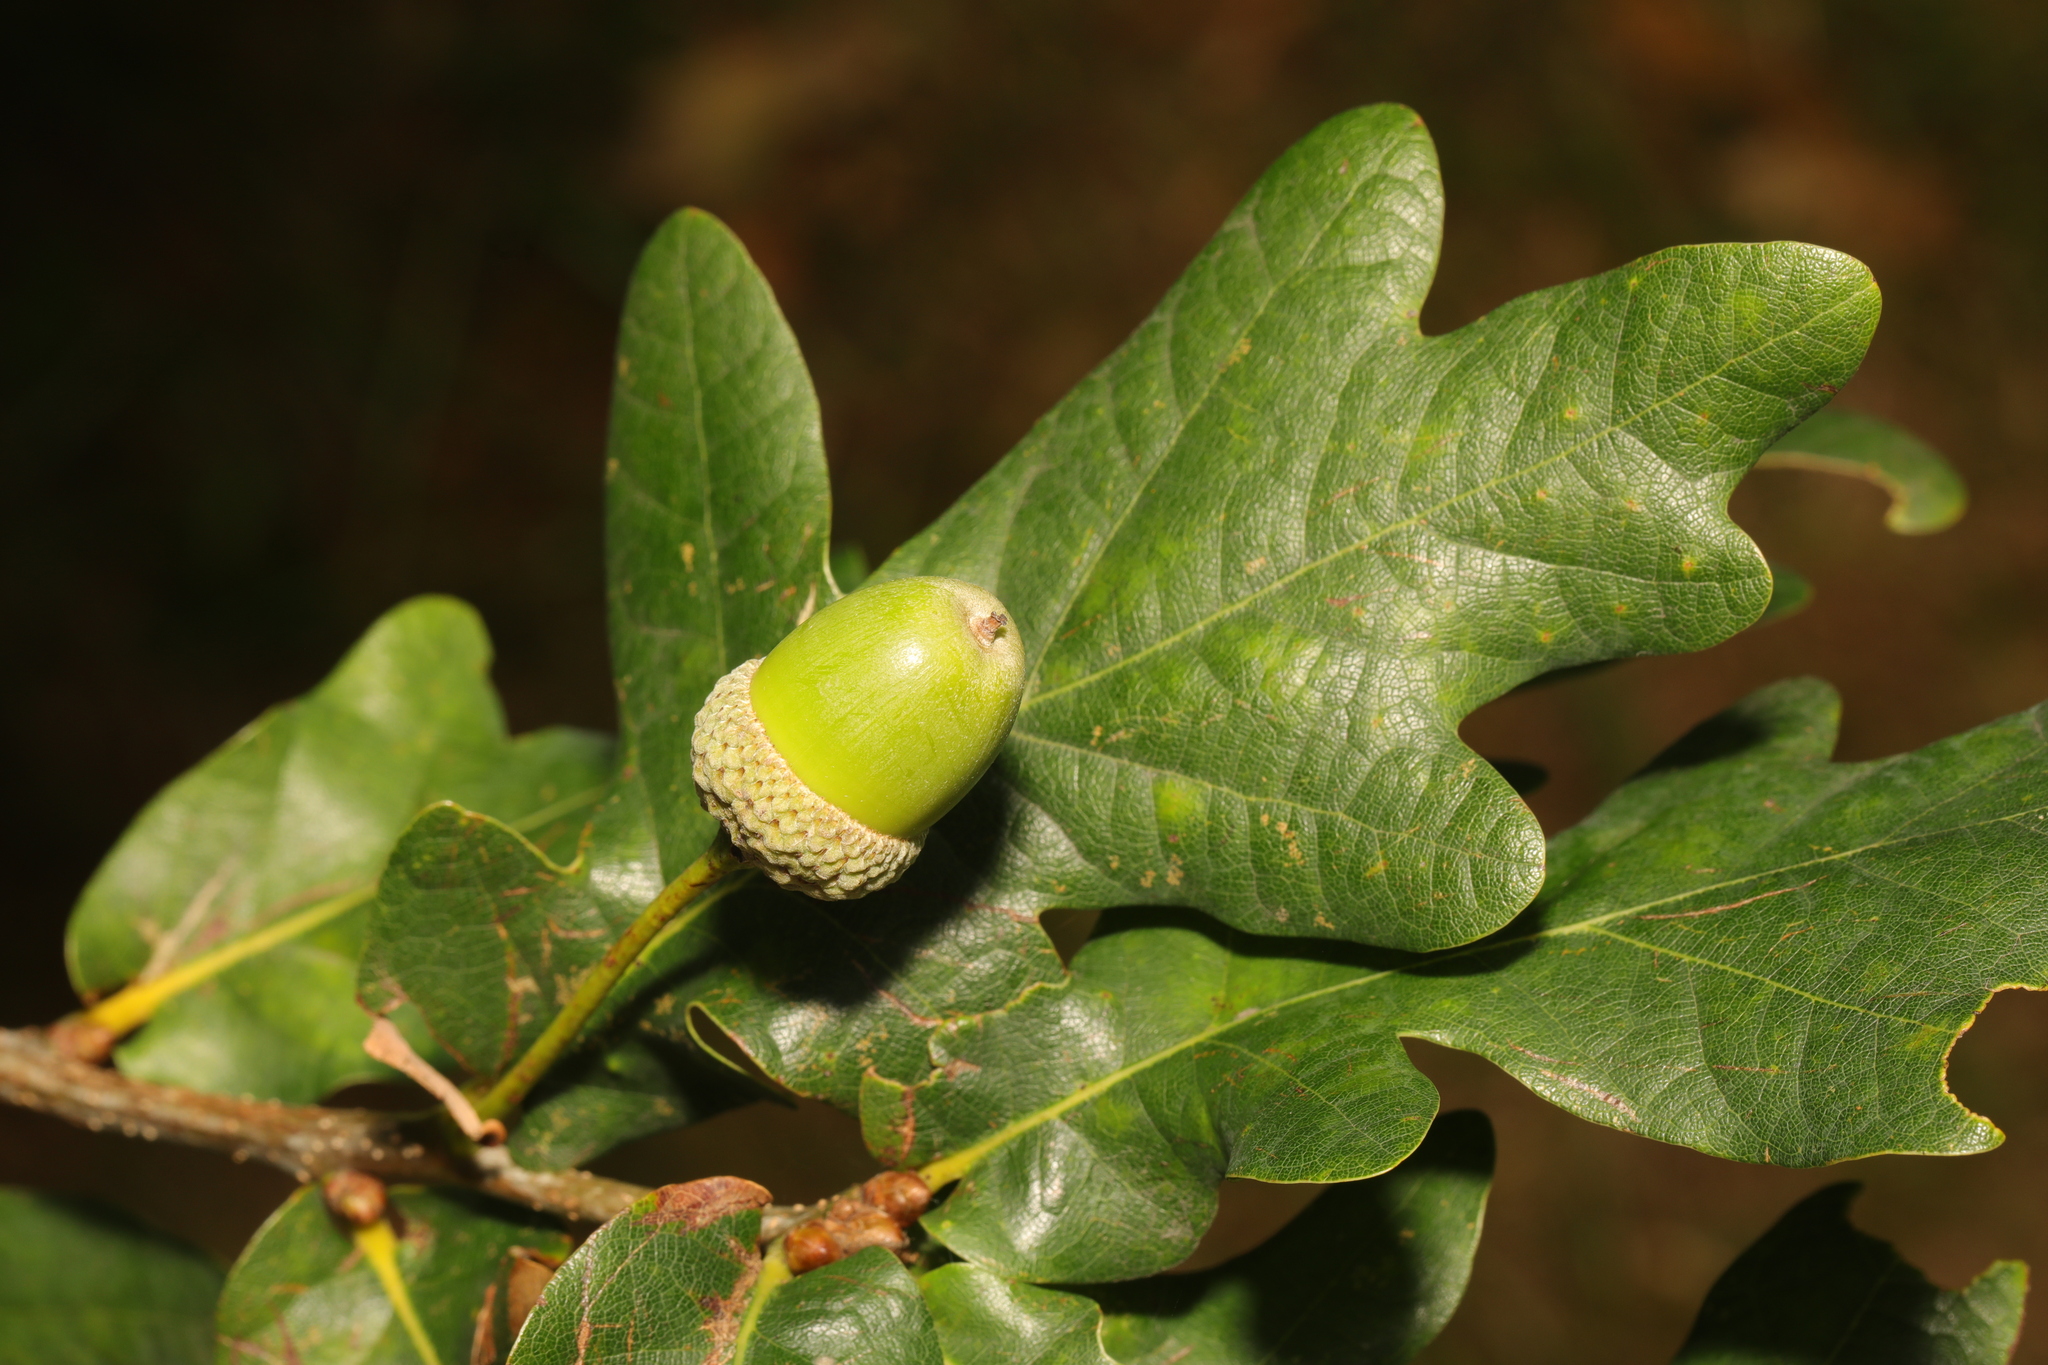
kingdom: Plantae
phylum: Tracheophyta
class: Magnoliopsida
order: Fagales
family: Fagaceae
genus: Quercus
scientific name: Quercus robur
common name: Pedunculate oak
